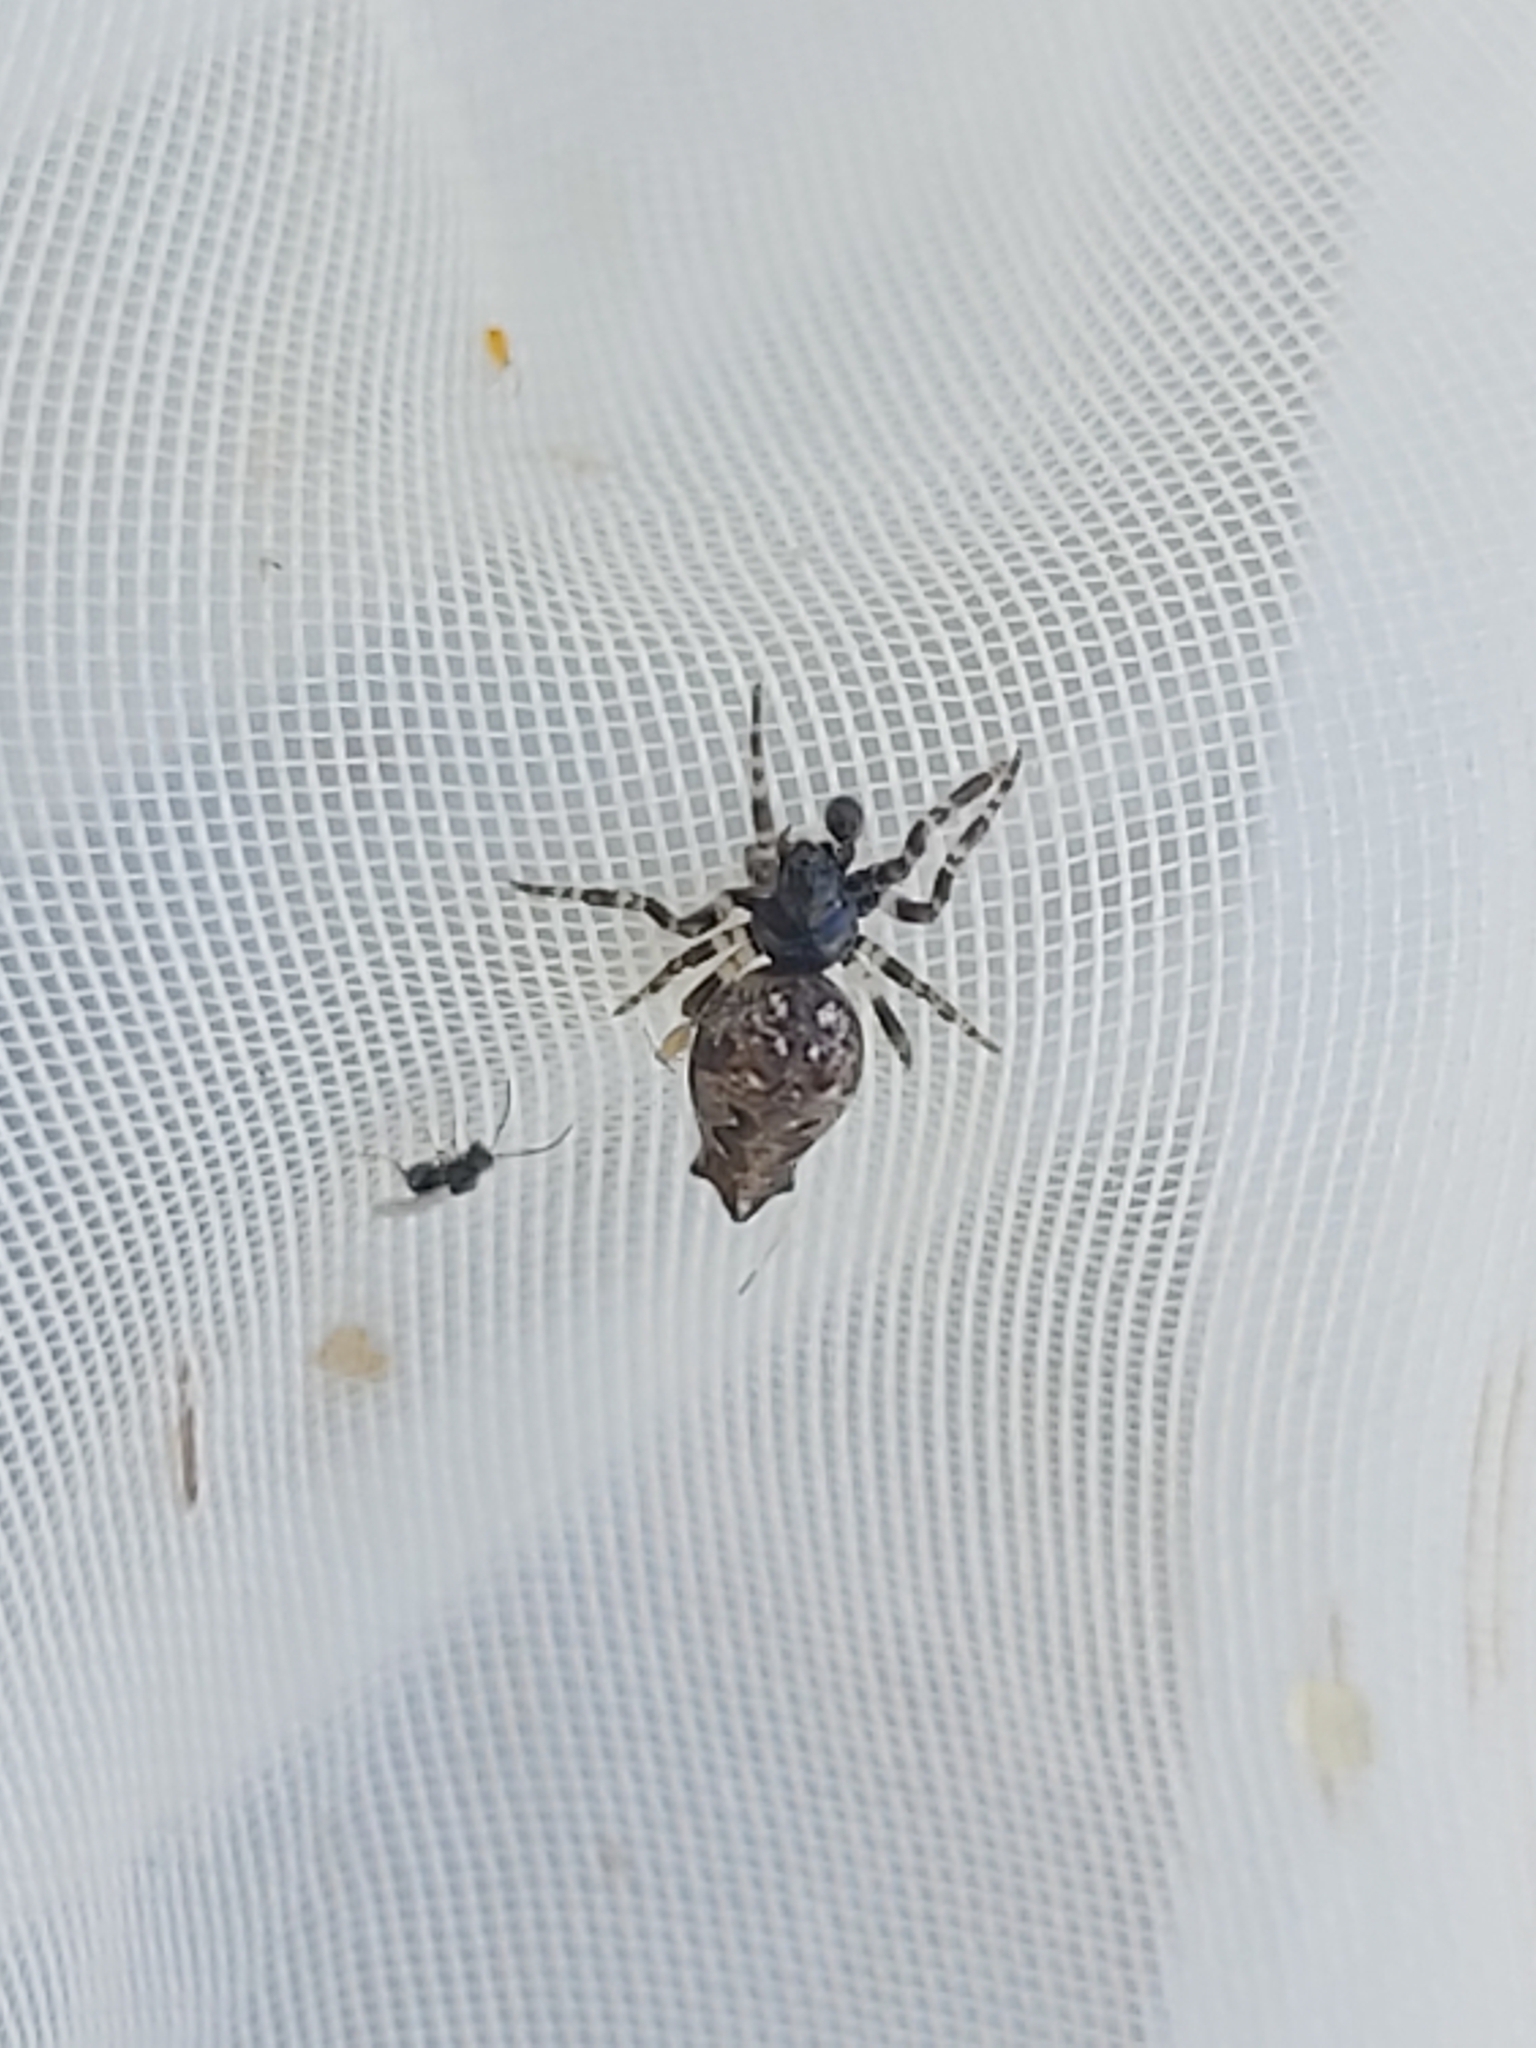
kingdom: Animalia
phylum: Arthropoda
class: Arachnida
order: Araneae
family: Araneidae
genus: Cyclosa
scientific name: Cyclosa oculata
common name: Trashline orbweaver
